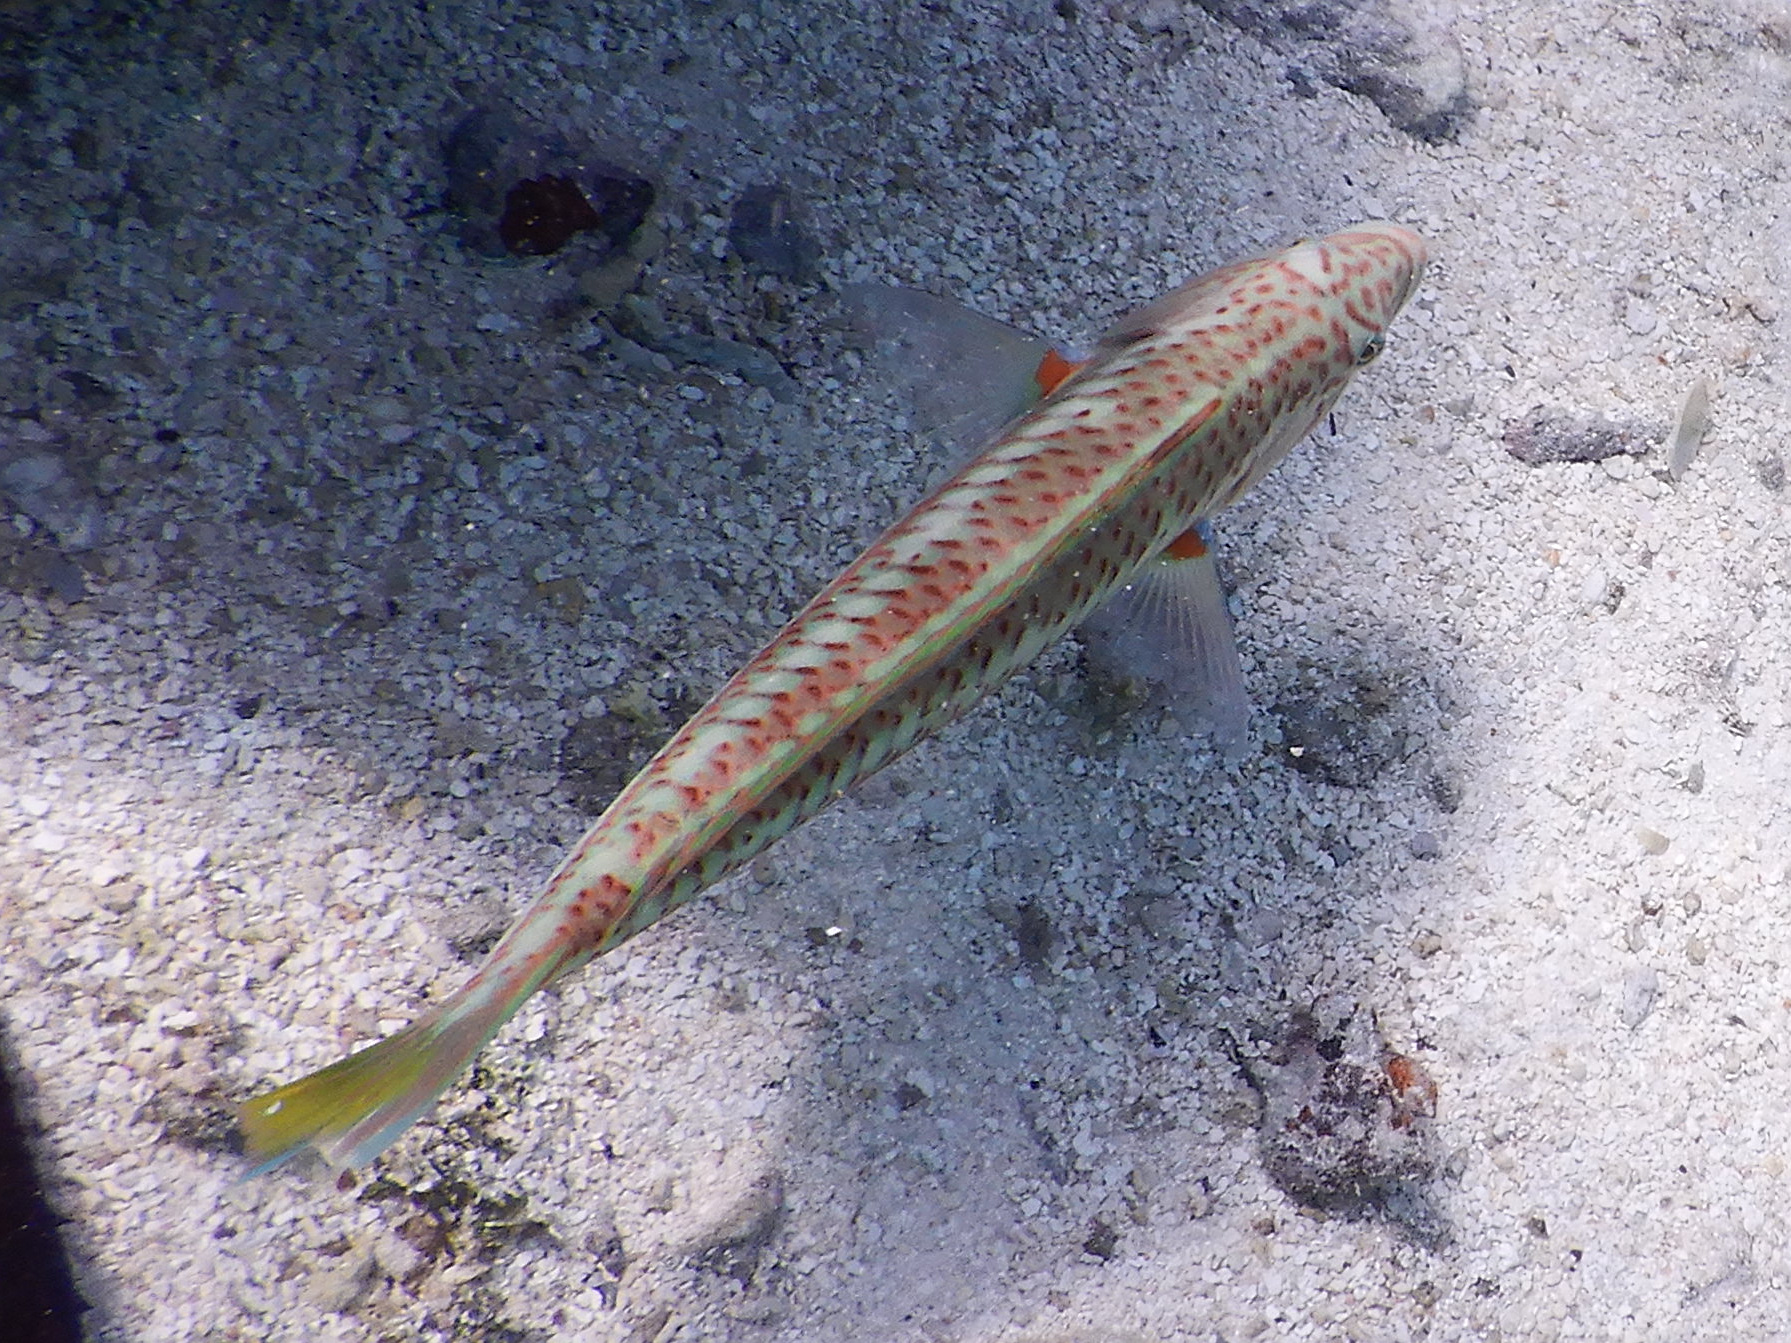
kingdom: Animalia
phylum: Chordata
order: Perciformes
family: Labridae
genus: Thalassoma
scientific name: Thalassoma purpureum
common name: Parrotfish
